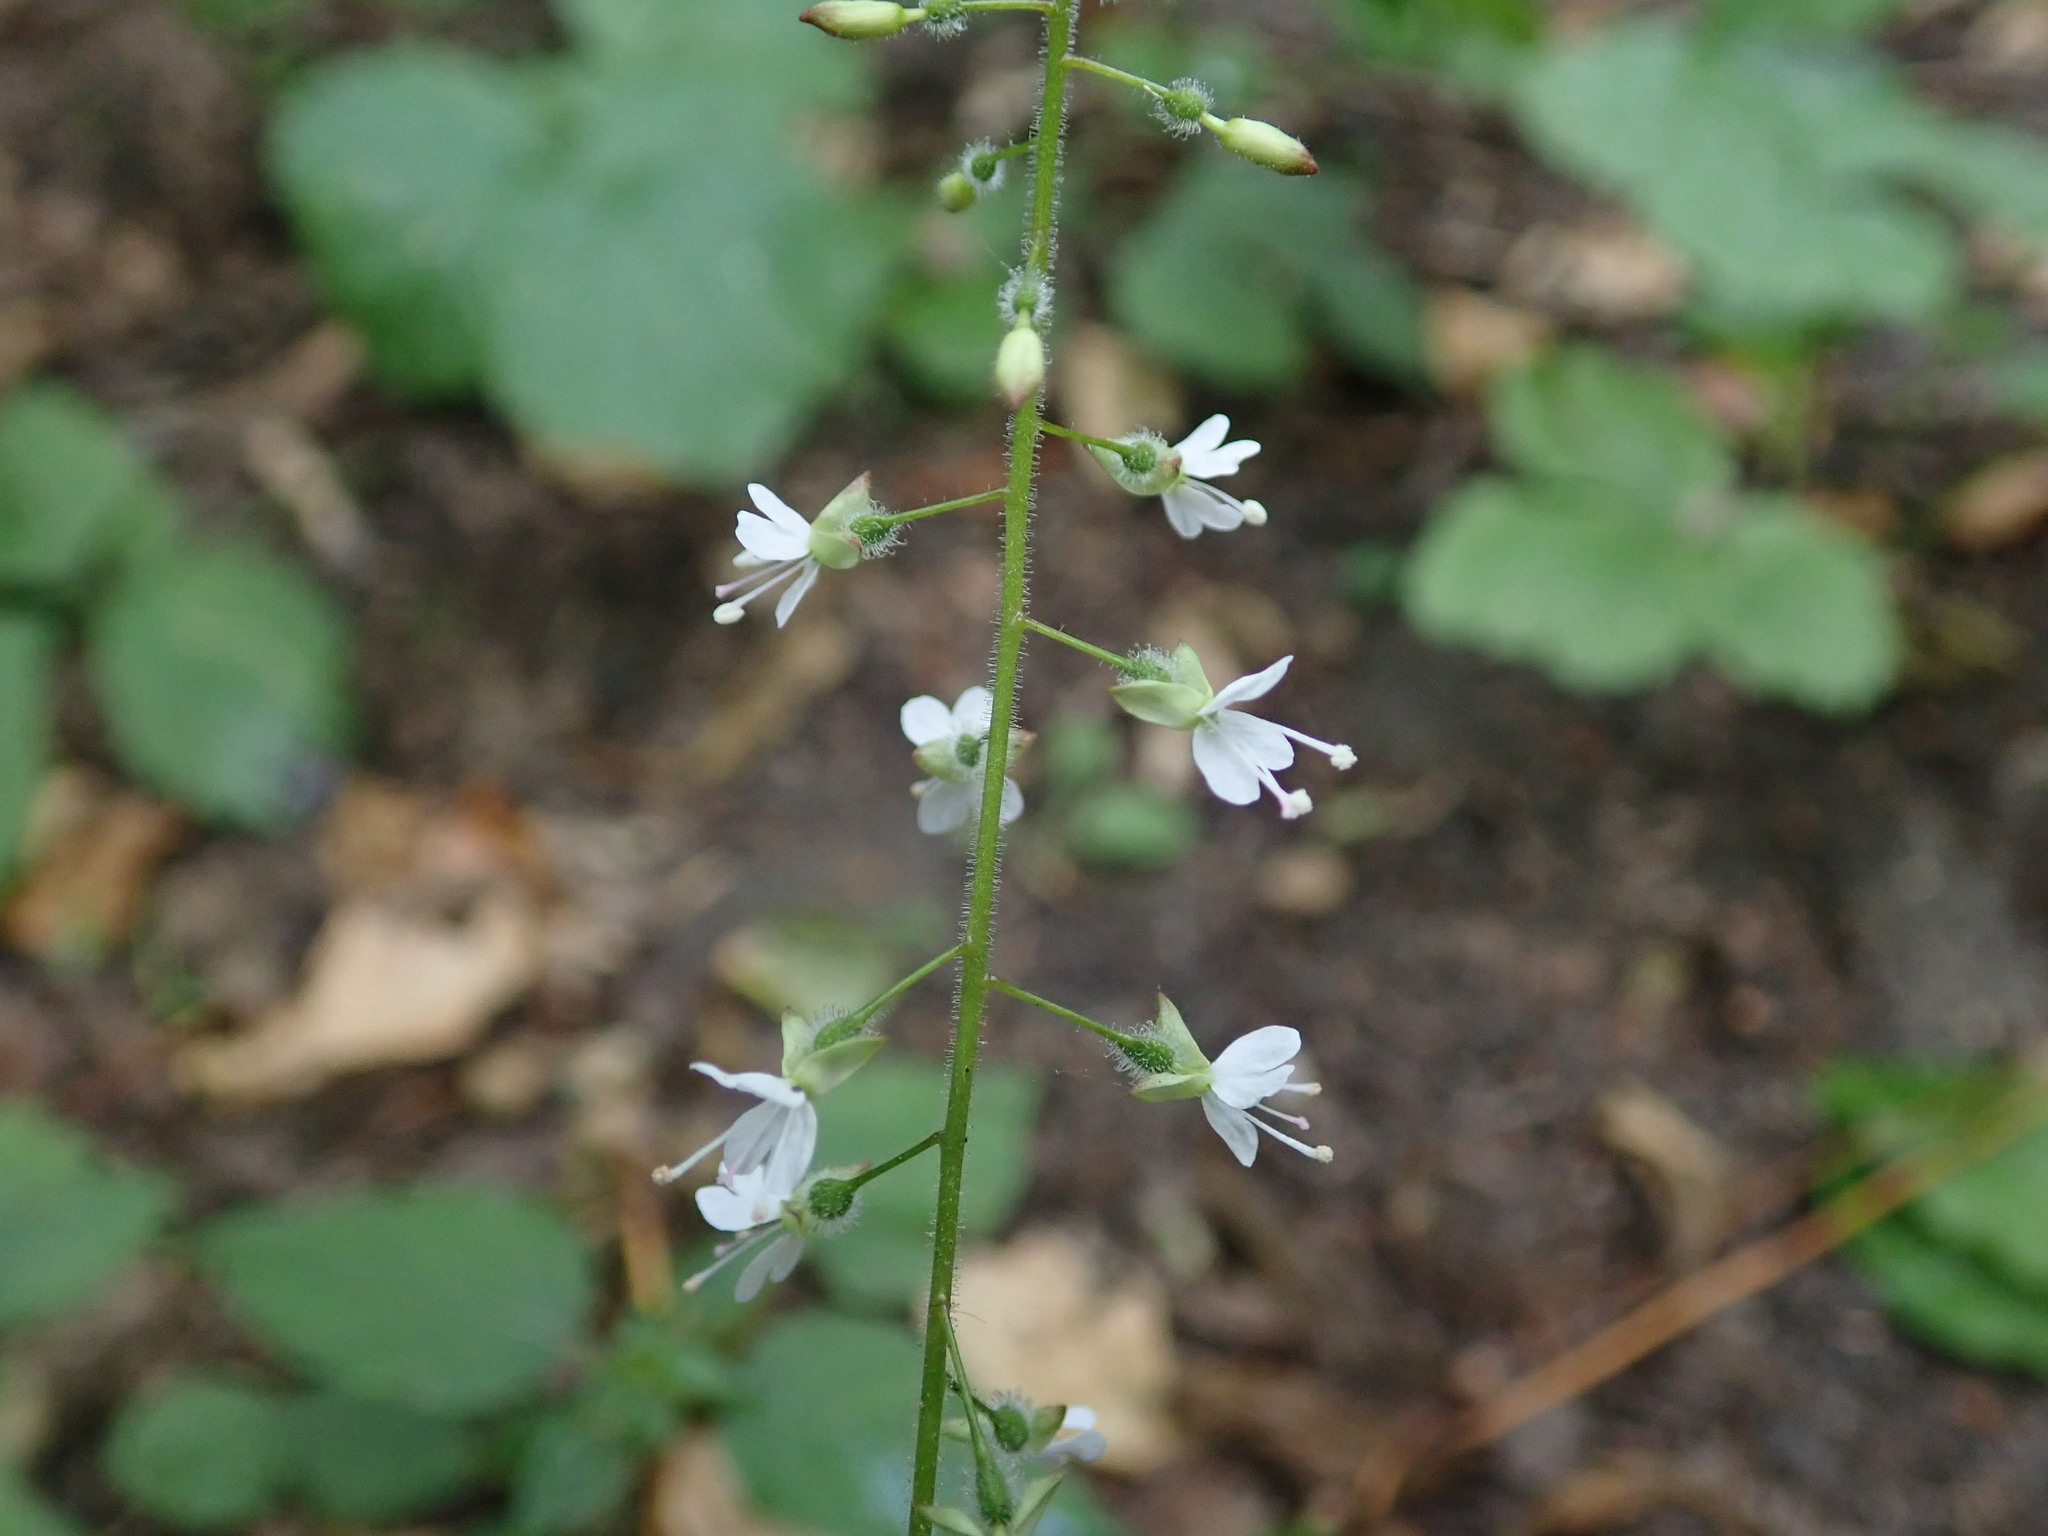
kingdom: Plantae
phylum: Tracheophyta
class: Magnoliopsida
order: Myrtales
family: Onagraceae
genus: Circaea
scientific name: Circaea lutetiana
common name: Enchanter's-nightshade
